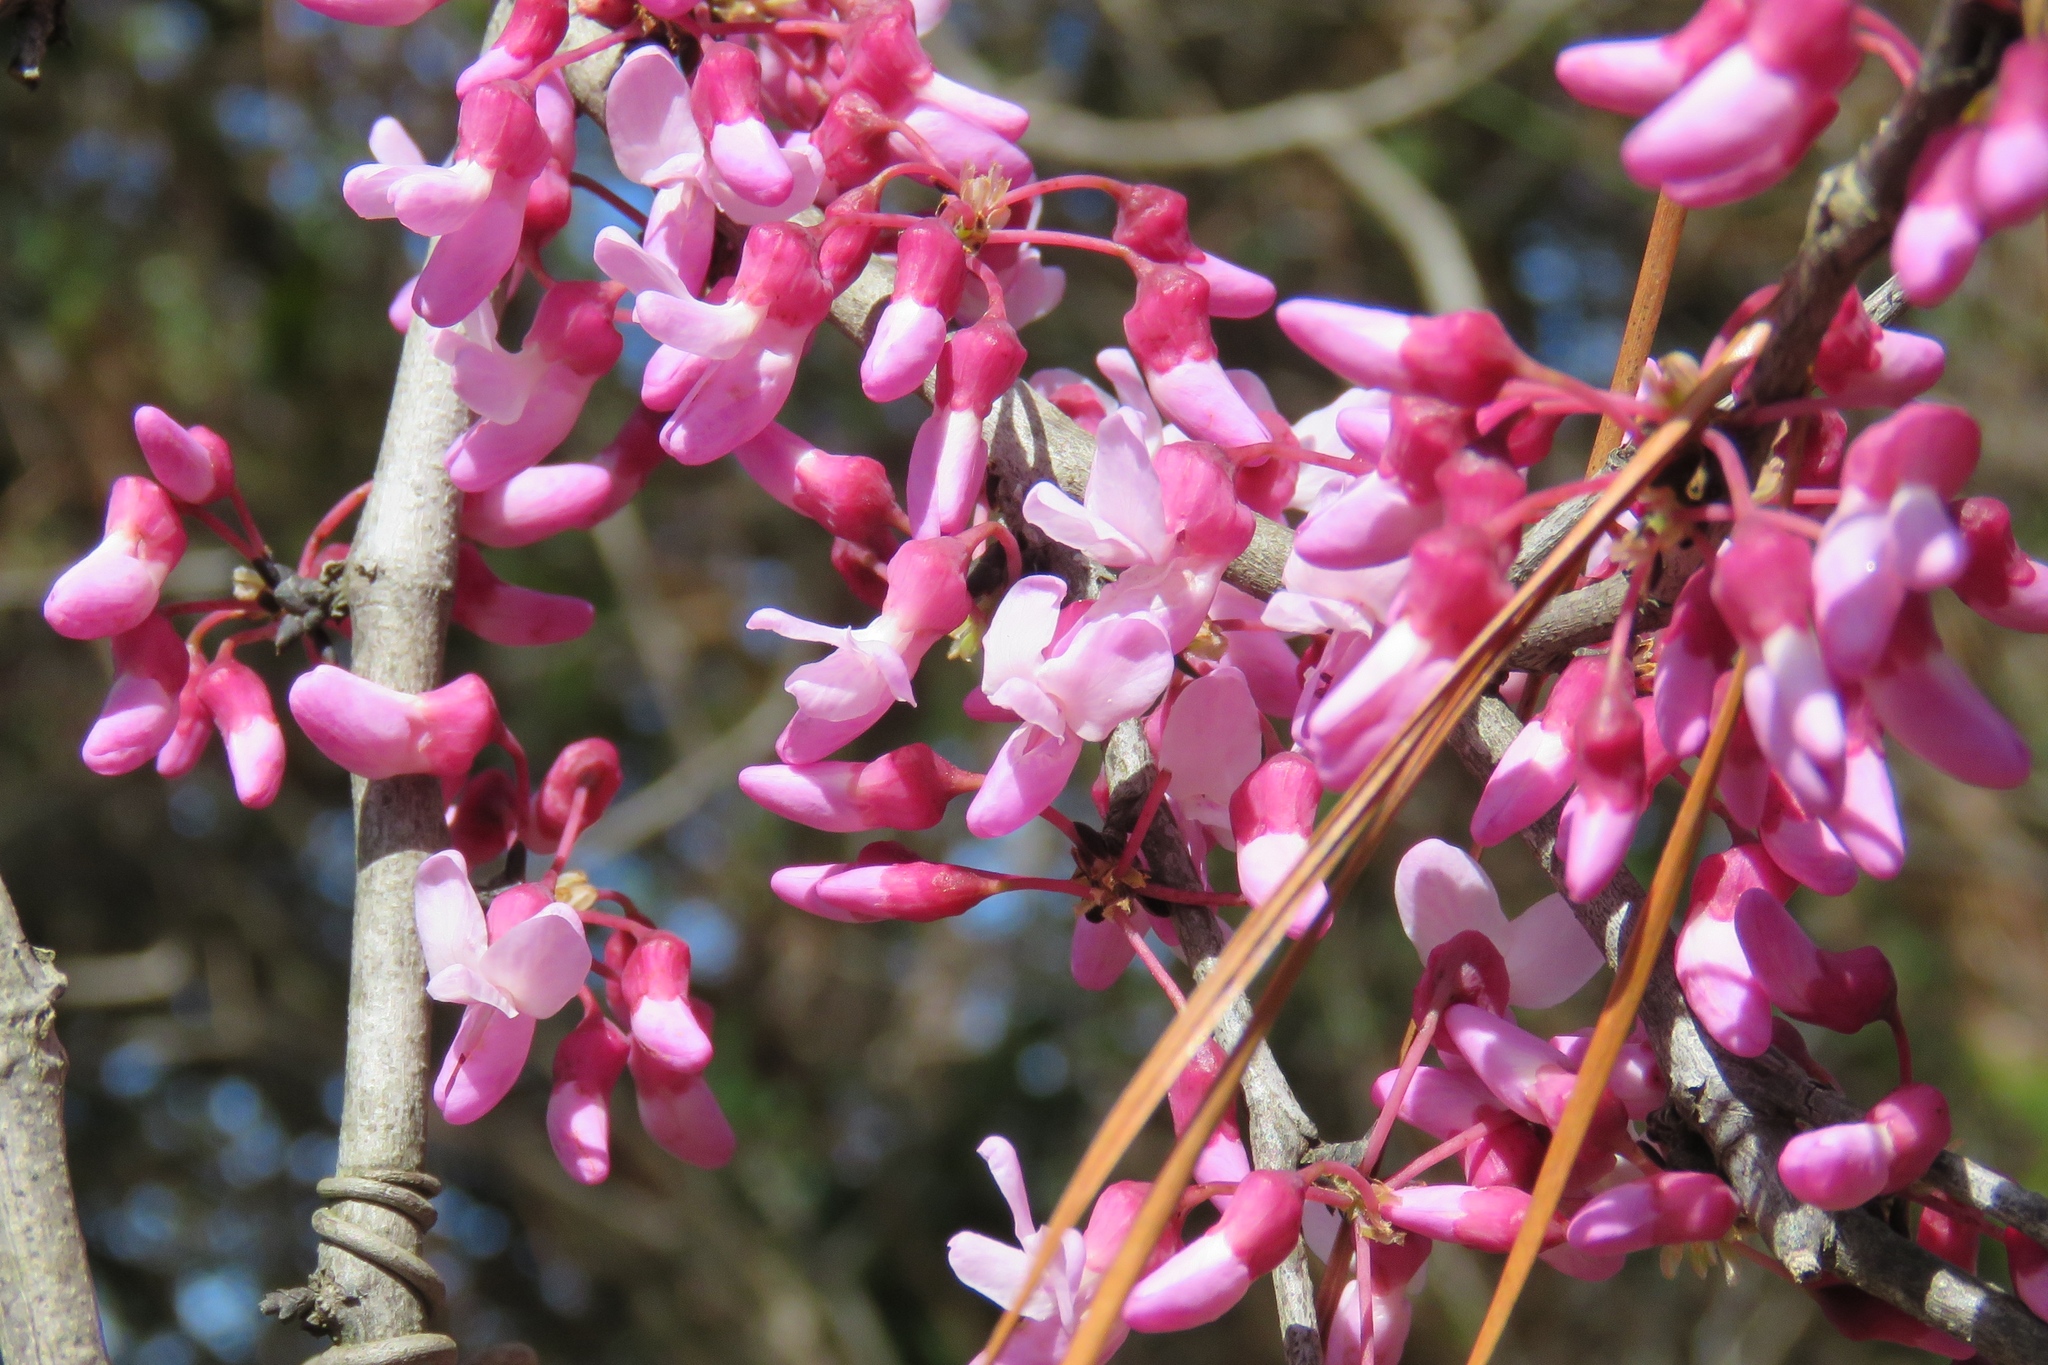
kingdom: Plantae
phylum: Tracheophyta
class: Magnoliopsida
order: Fabales
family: Fabaceae
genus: Cercis
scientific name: Cercis canadensis
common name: Eastern redbud
